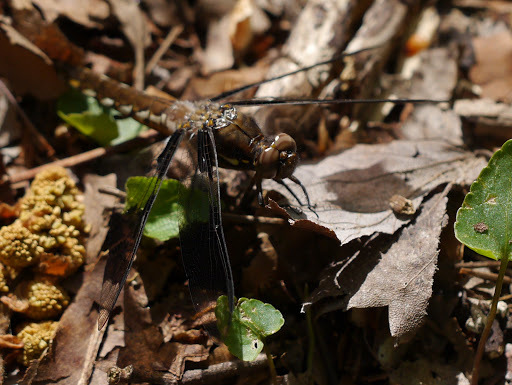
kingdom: Animalia
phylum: Arthropoda
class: Insecta
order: Odonata
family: Libellulidae
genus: Plathemis
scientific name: Plathemis lydia
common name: Common whitetail
